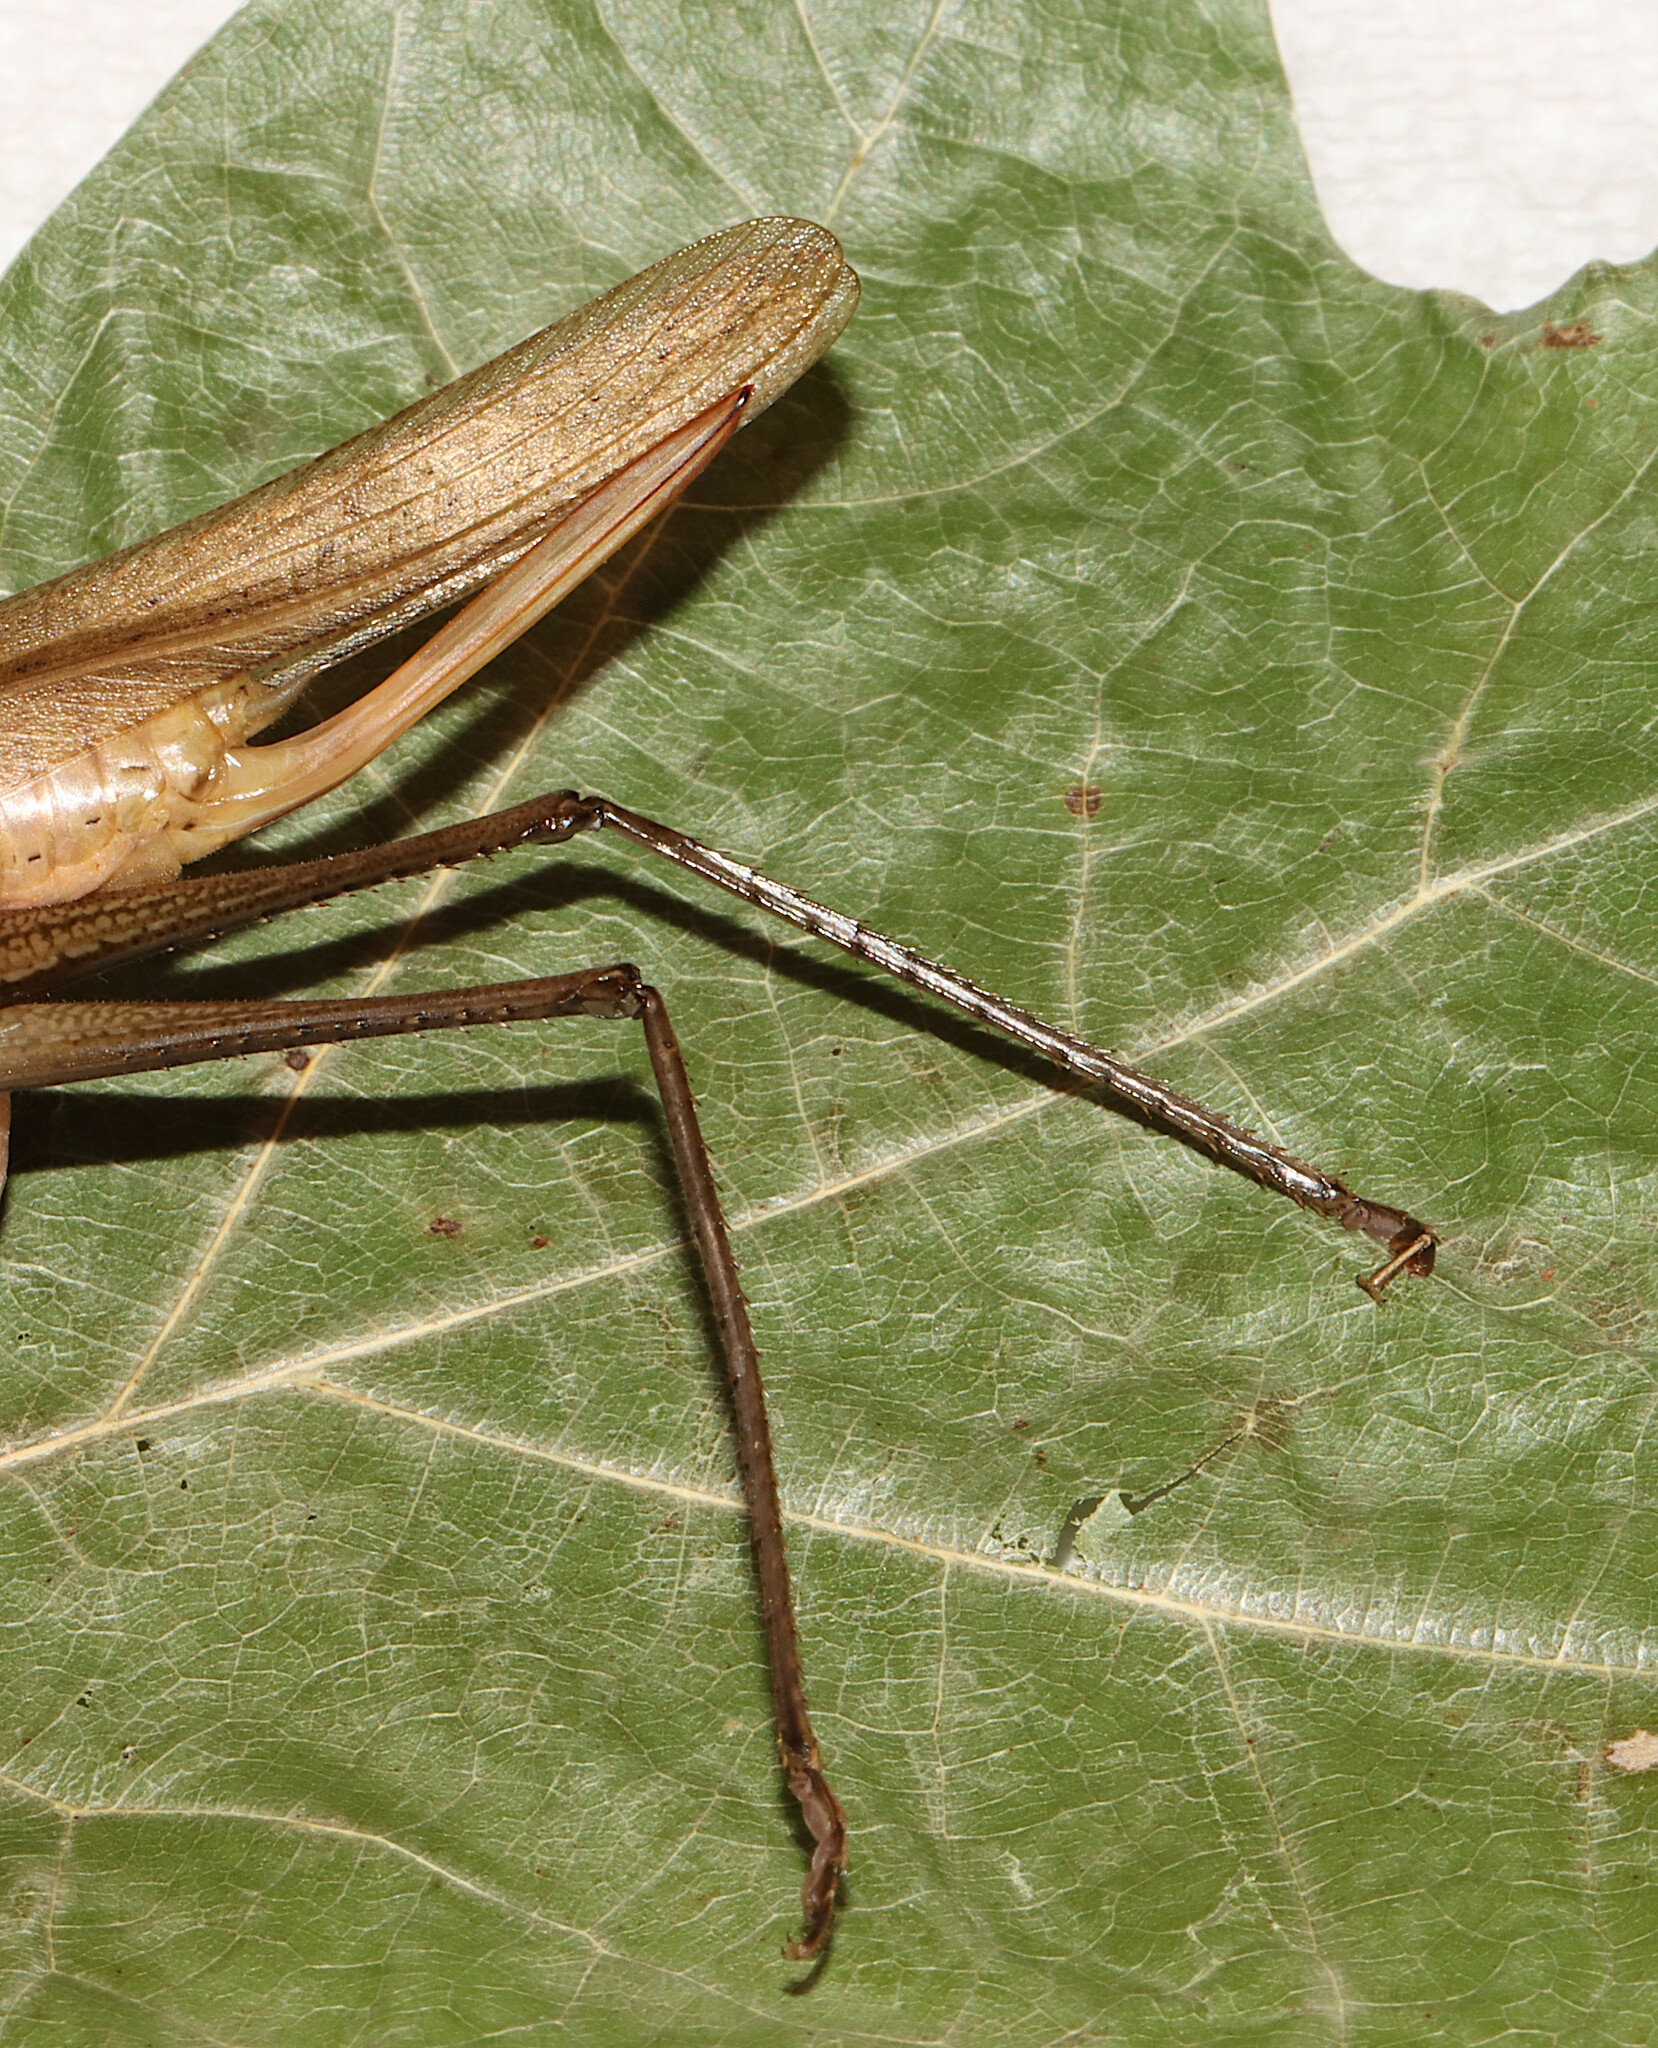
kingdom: Animalia
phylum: Arthropoda
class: Insecta
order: Orthoptera
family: Tettigoniidae
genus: Neoconocephalus
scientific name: Neoconocephalus palustris
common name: Marsh conehead
